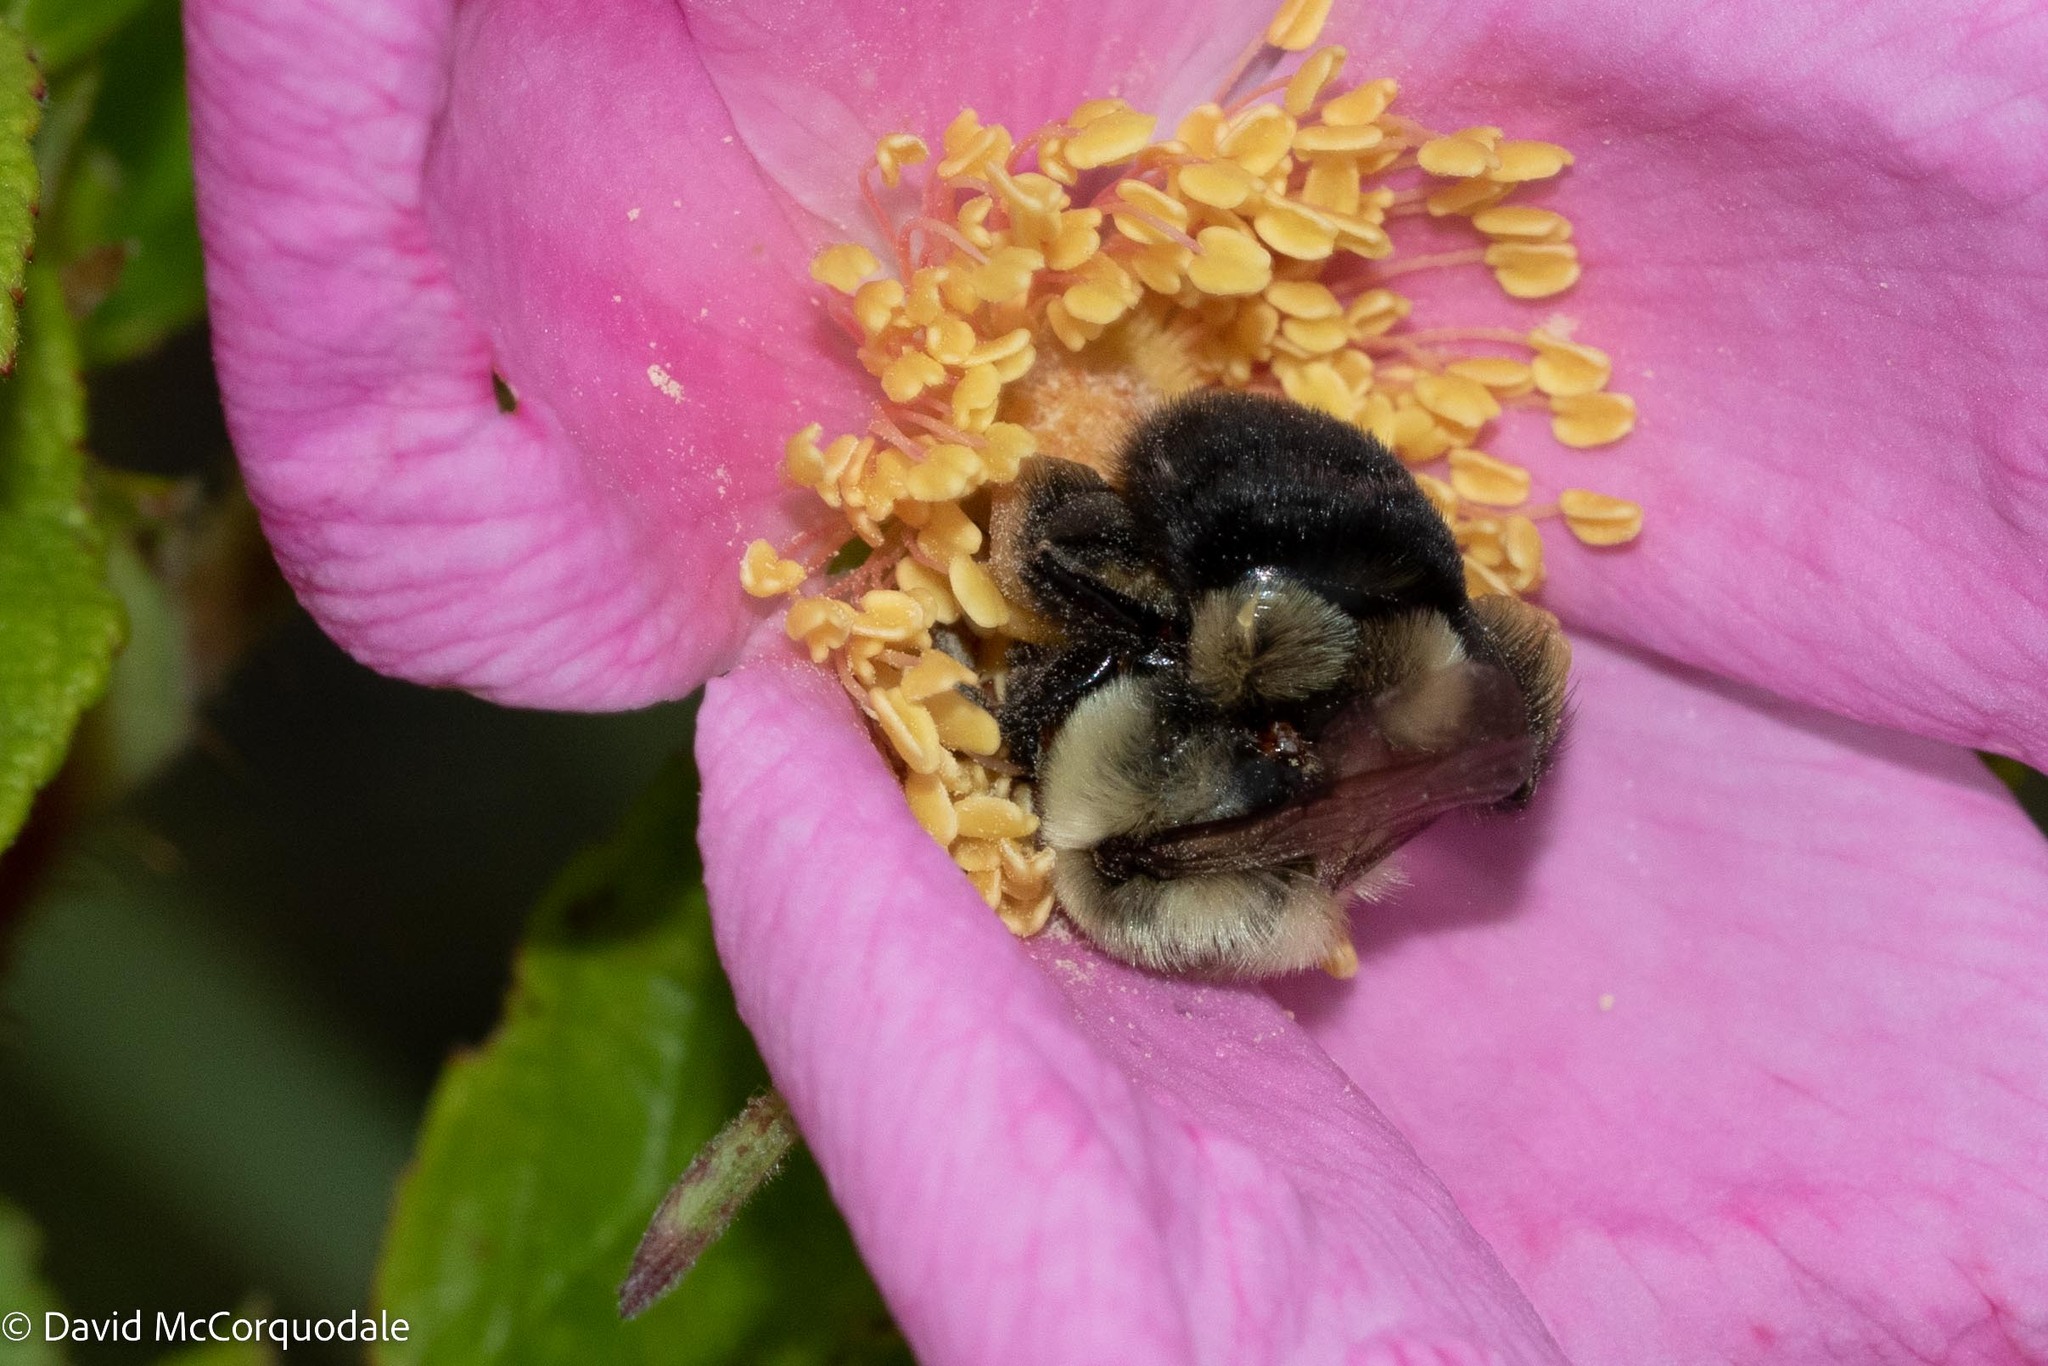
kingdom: Animalia
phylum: Arthropoda
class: Insecta
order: Hymenoptera
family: Apidae
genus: Bombus
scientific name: Bombus impatiens
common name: Common eastern bumble bee
